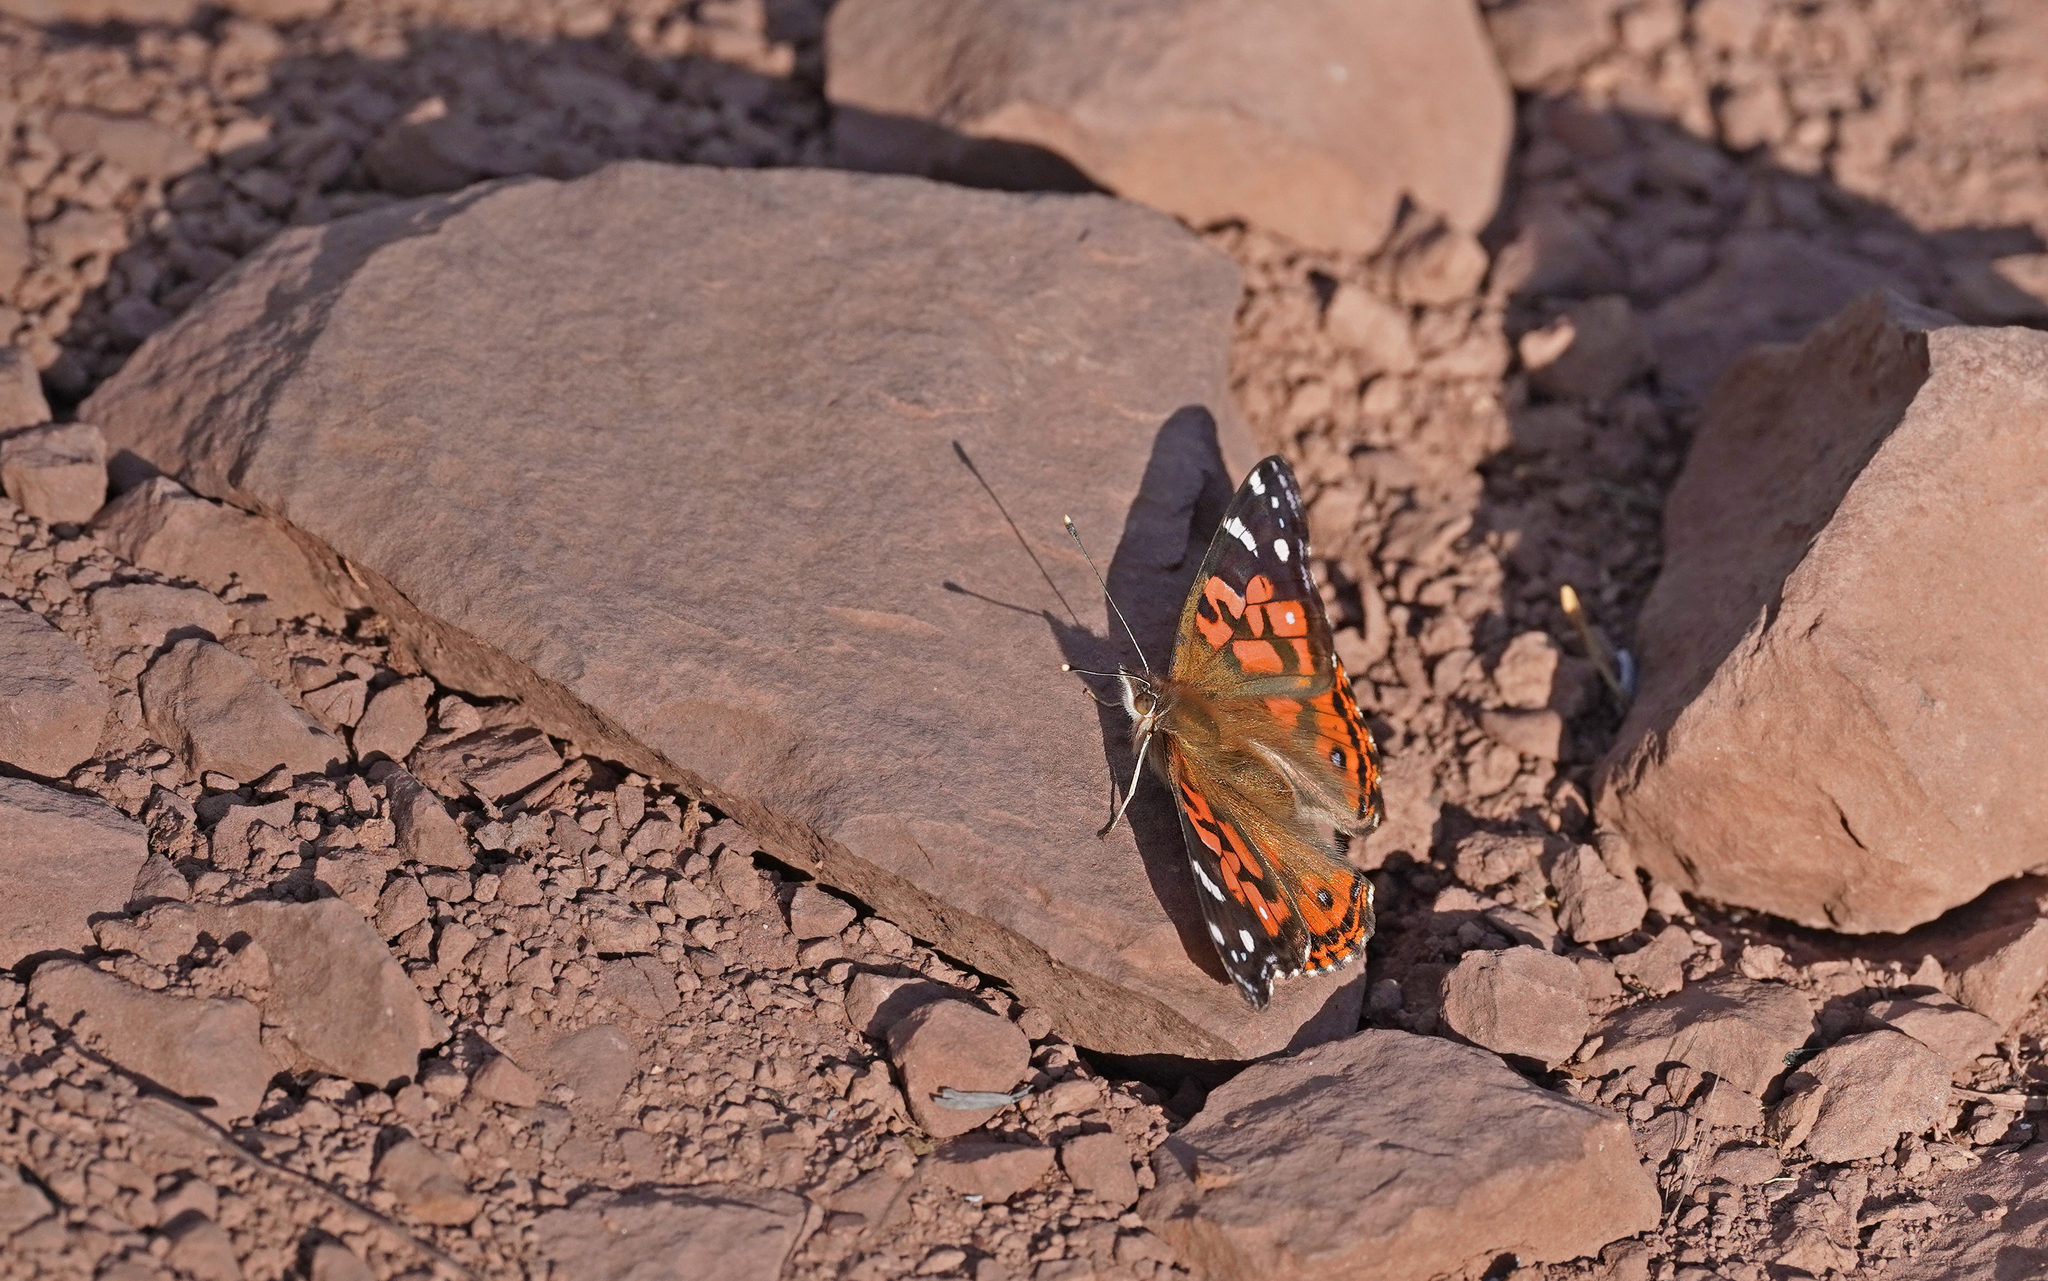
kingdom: Animalia
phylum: Arthropoda
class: Insecta
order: Lepidoptera
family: Nymphalidae
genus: Vanessa
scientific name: Vanessa braziliensis
